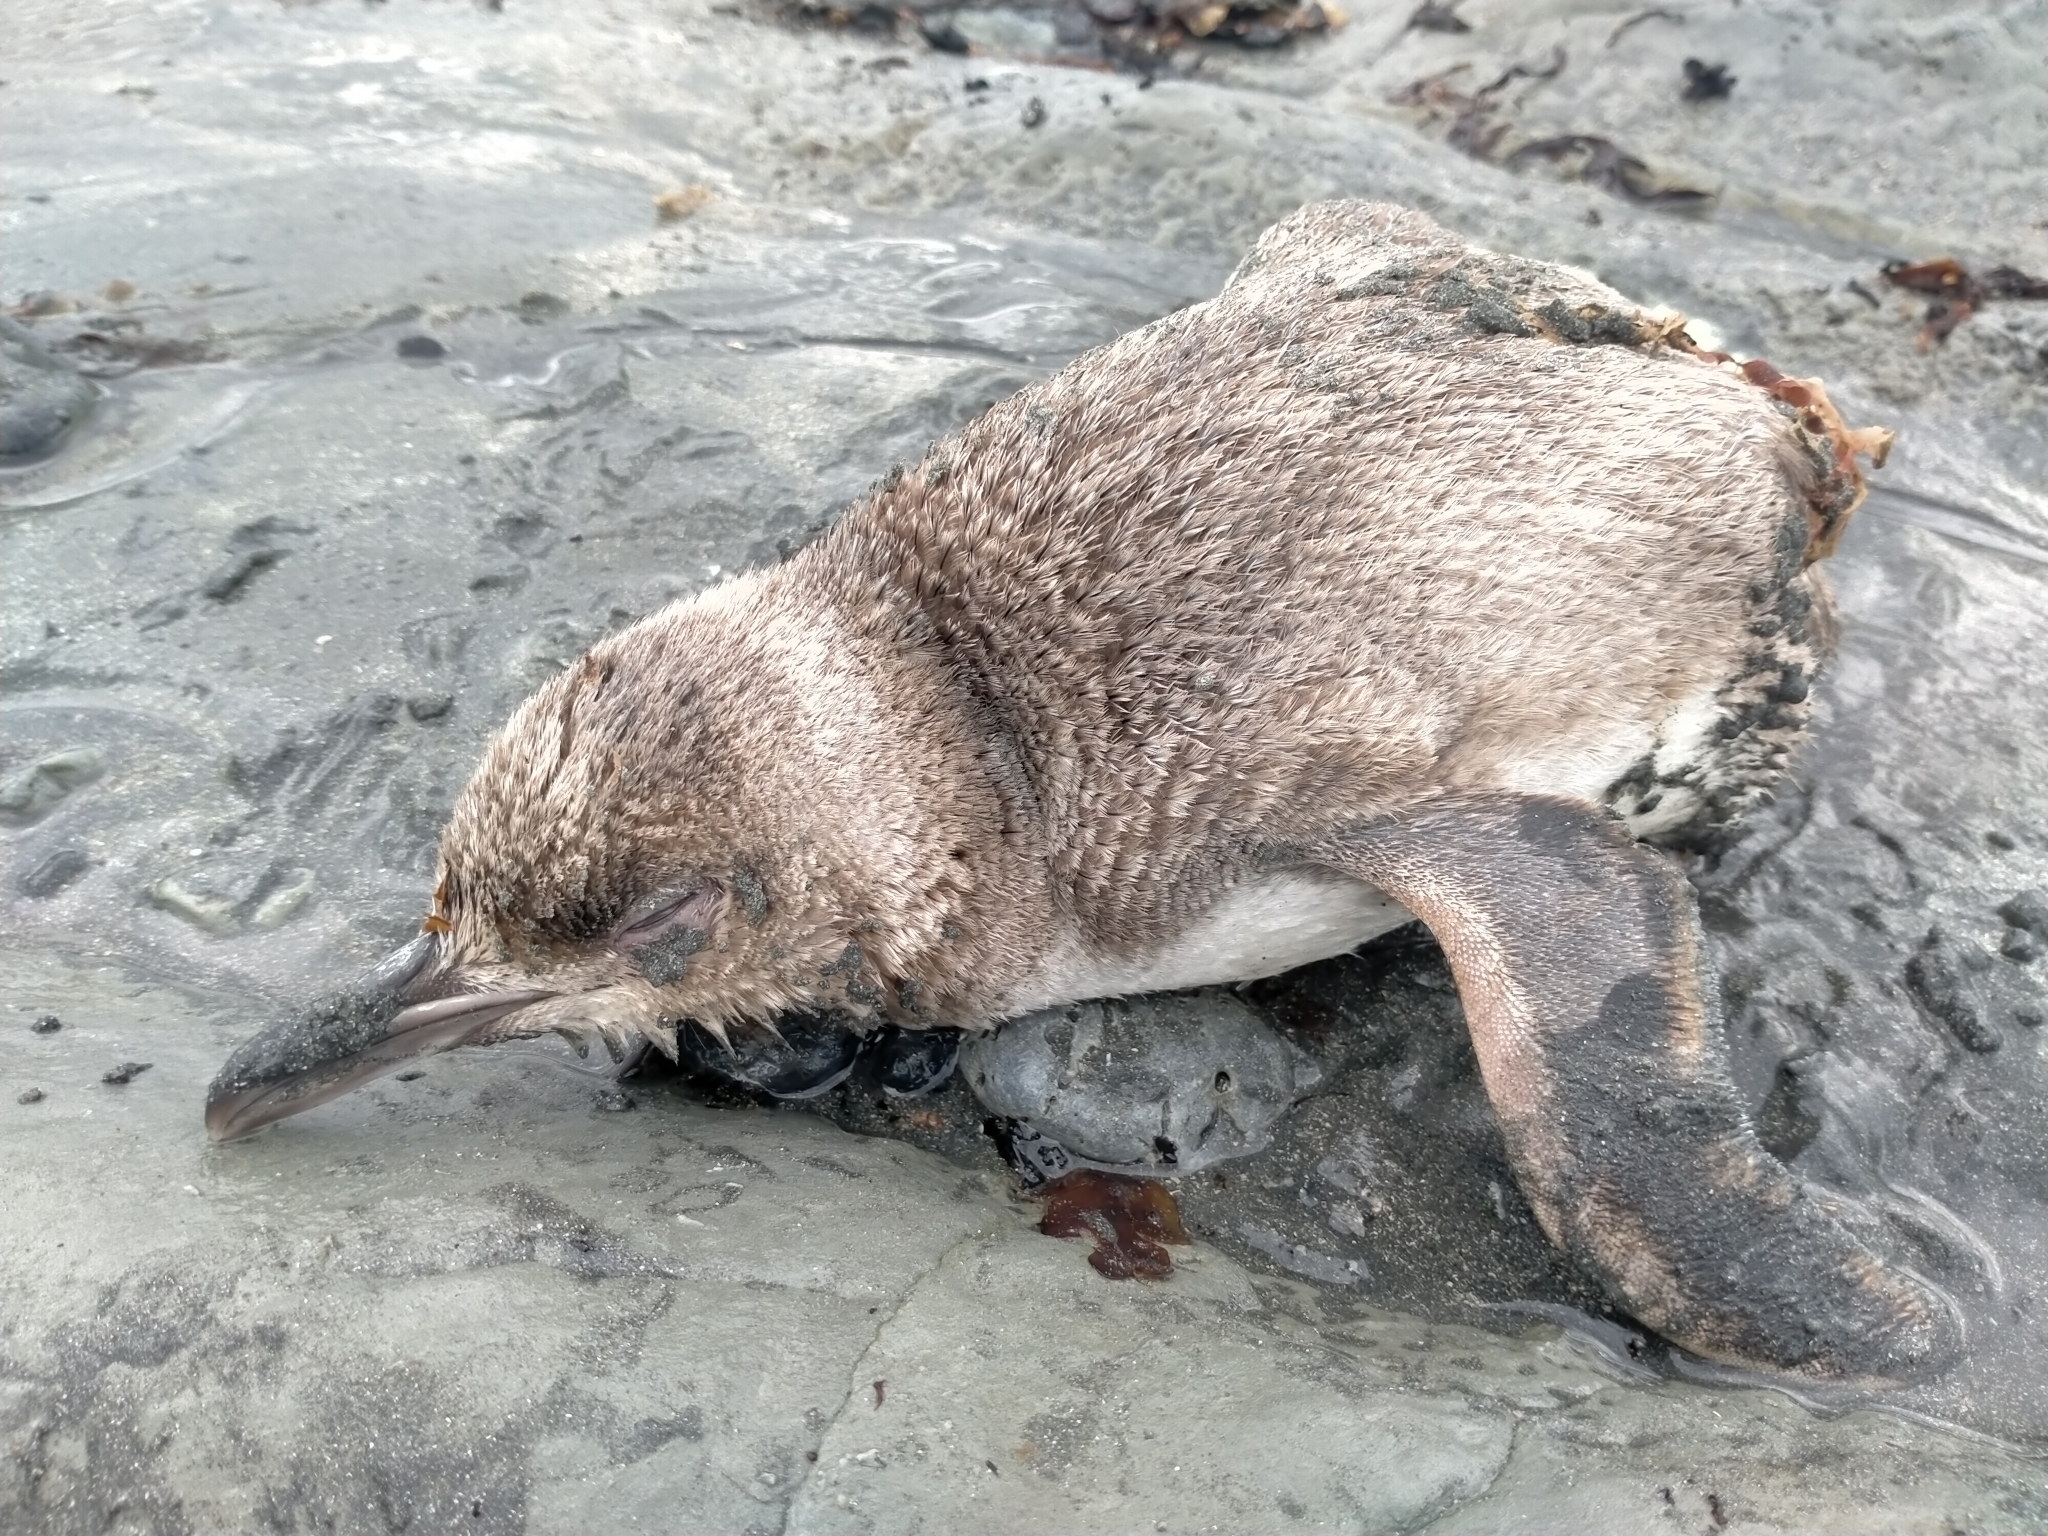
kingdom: Animalia
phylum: Chordata
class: Aves
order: Sphenisciformes
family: Spheniscidae
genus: Eudyptula
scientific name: Eudyptula minor
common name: Little penguin
